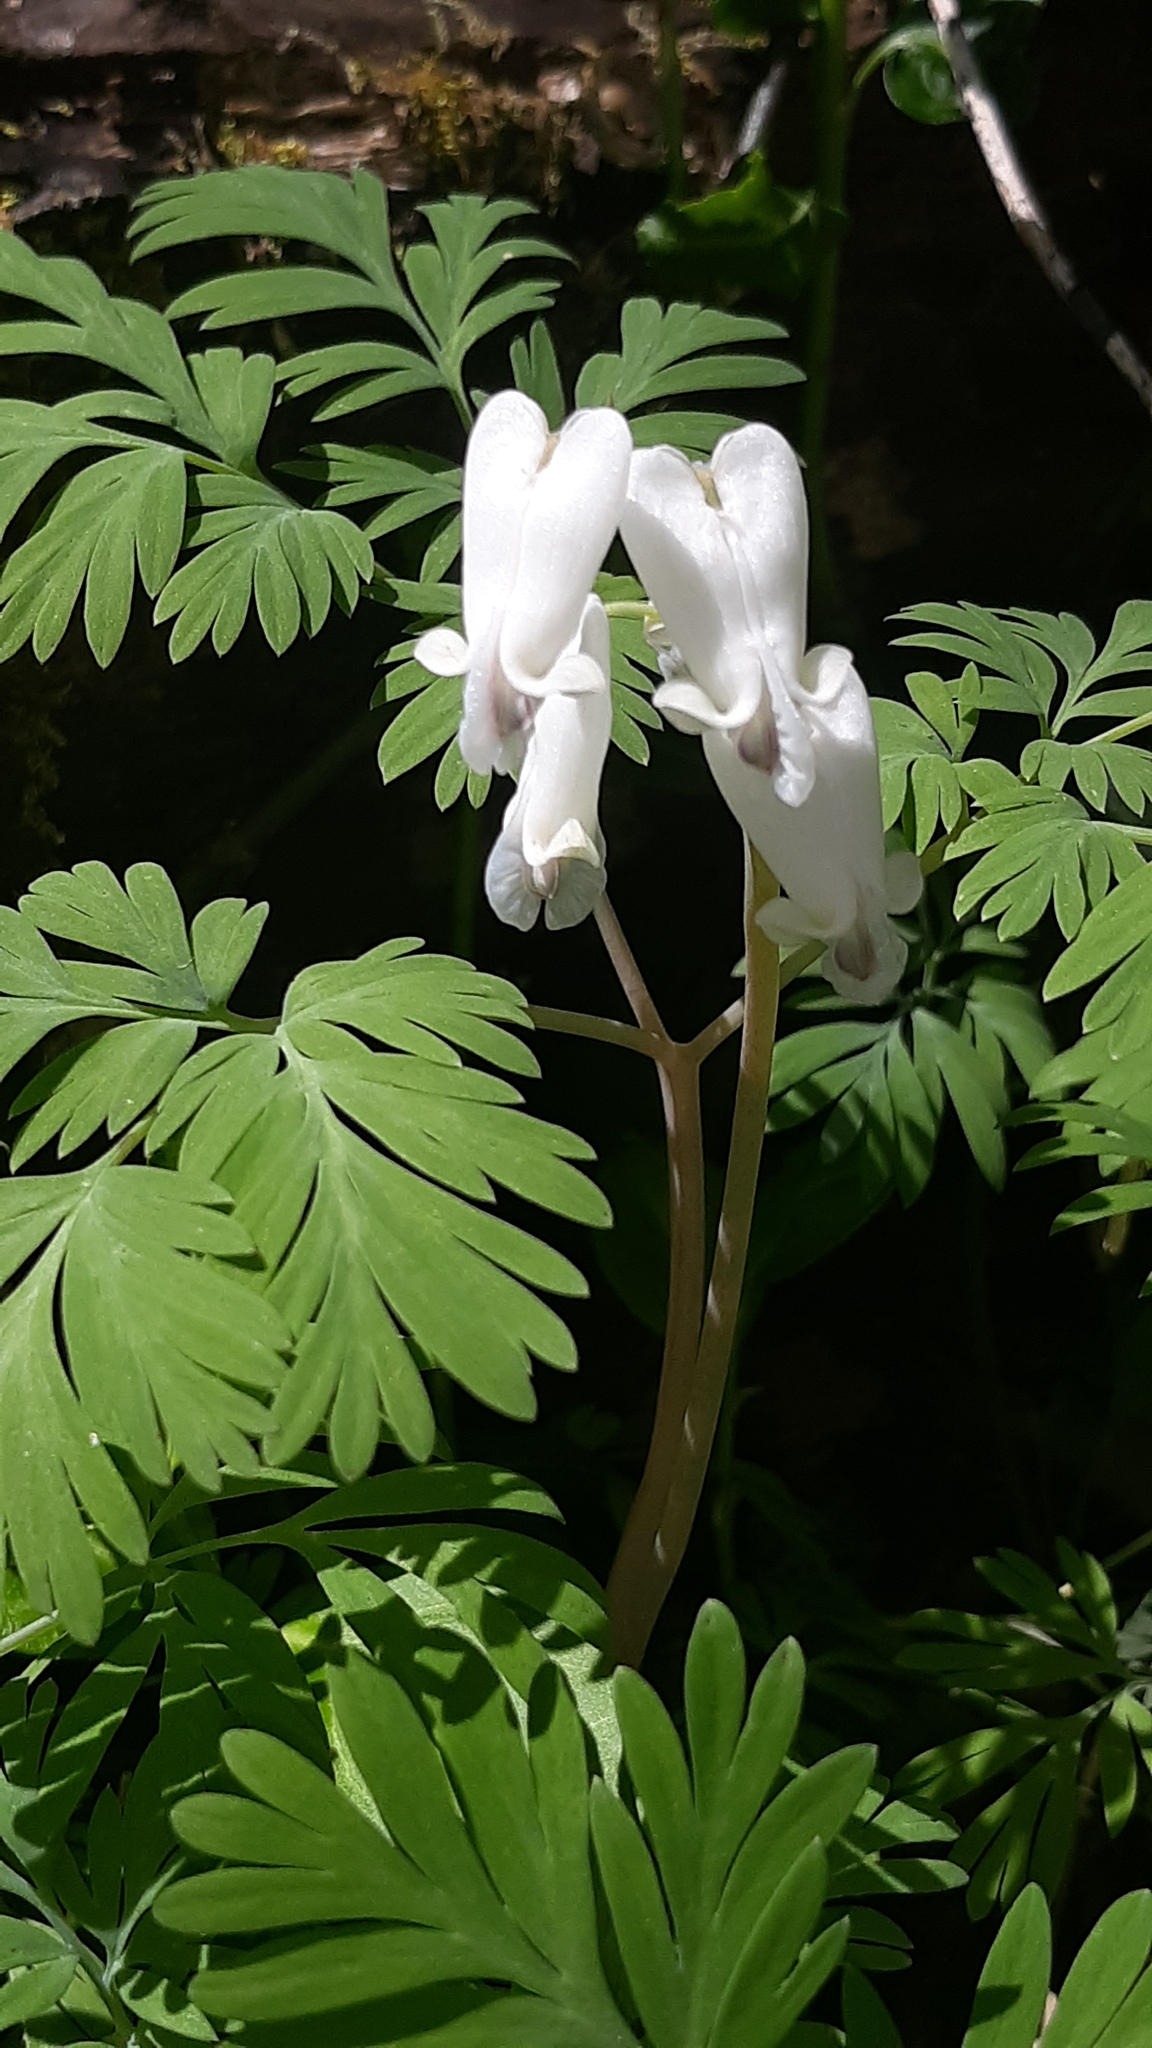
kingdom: Plantae
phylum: Tracheophyta
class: Magnoliopsida
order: Ranunculales
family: Papaveraceae
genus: Dicentra
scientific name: Dicentra canadensis
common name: Squirrel-corn
